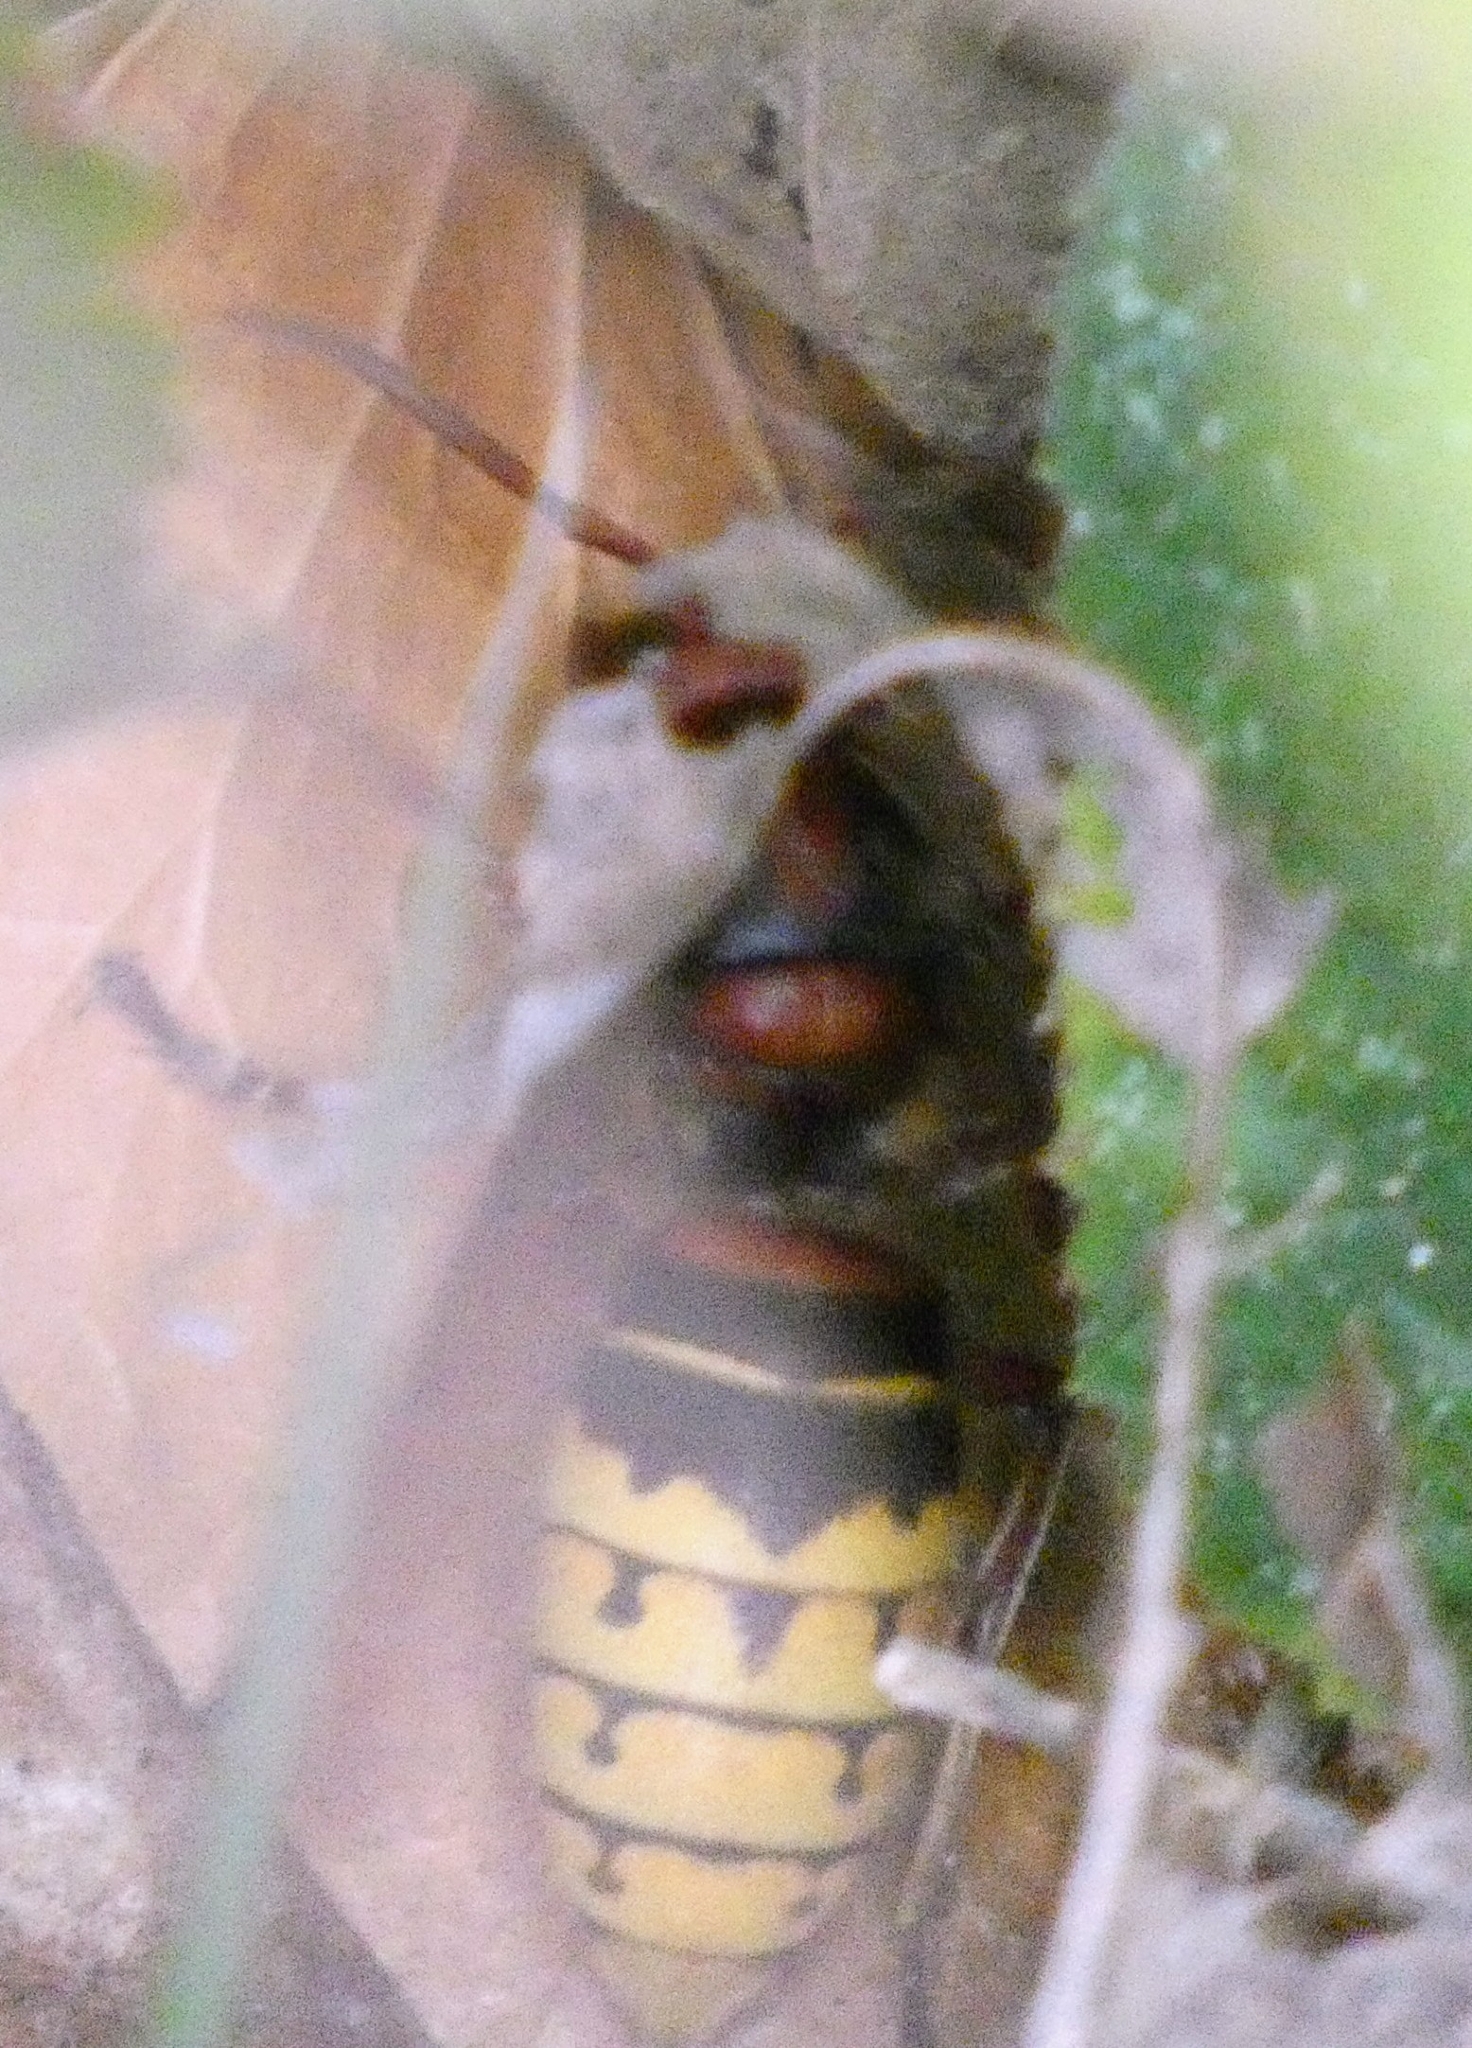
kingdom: Animalia
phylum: Arthropoda
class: Insecta
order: Hymenoptera
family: Vespidae
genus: Vespa
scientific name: Vespa crabro
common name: Hornet
